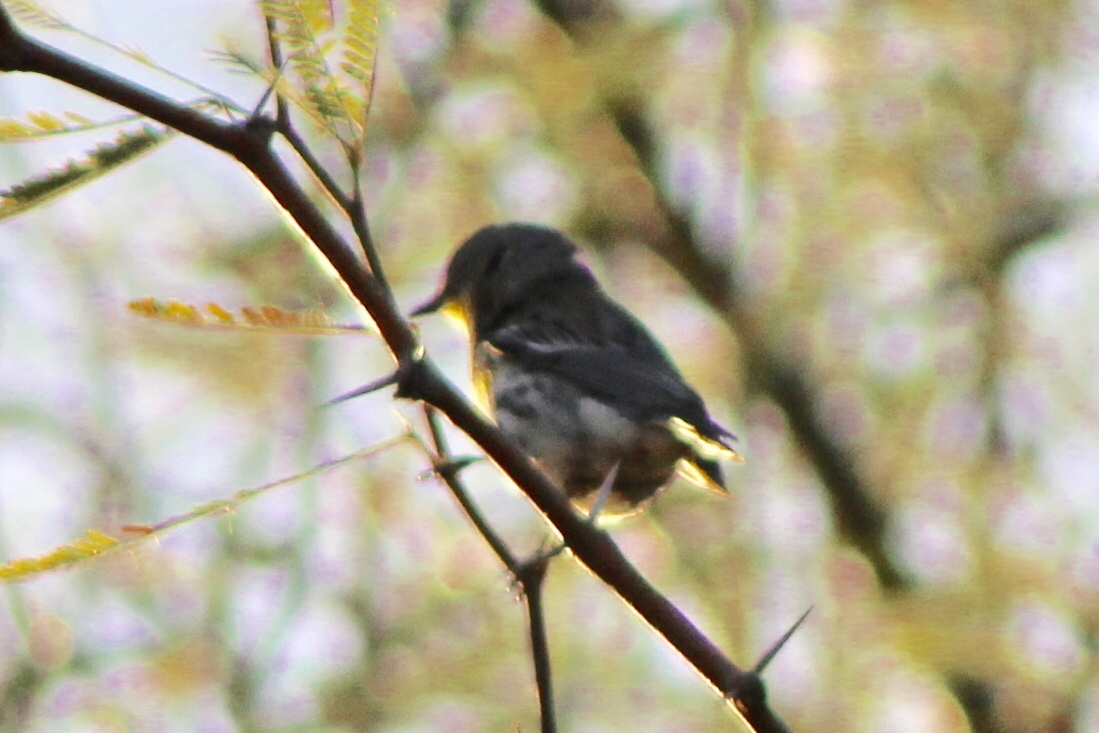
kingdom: Animalia
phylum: Chordata
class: Aves
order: Passeriformes
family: Parulidae
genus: Setophaga
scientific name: Setophaga auduboni
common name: Audubon's warbler
